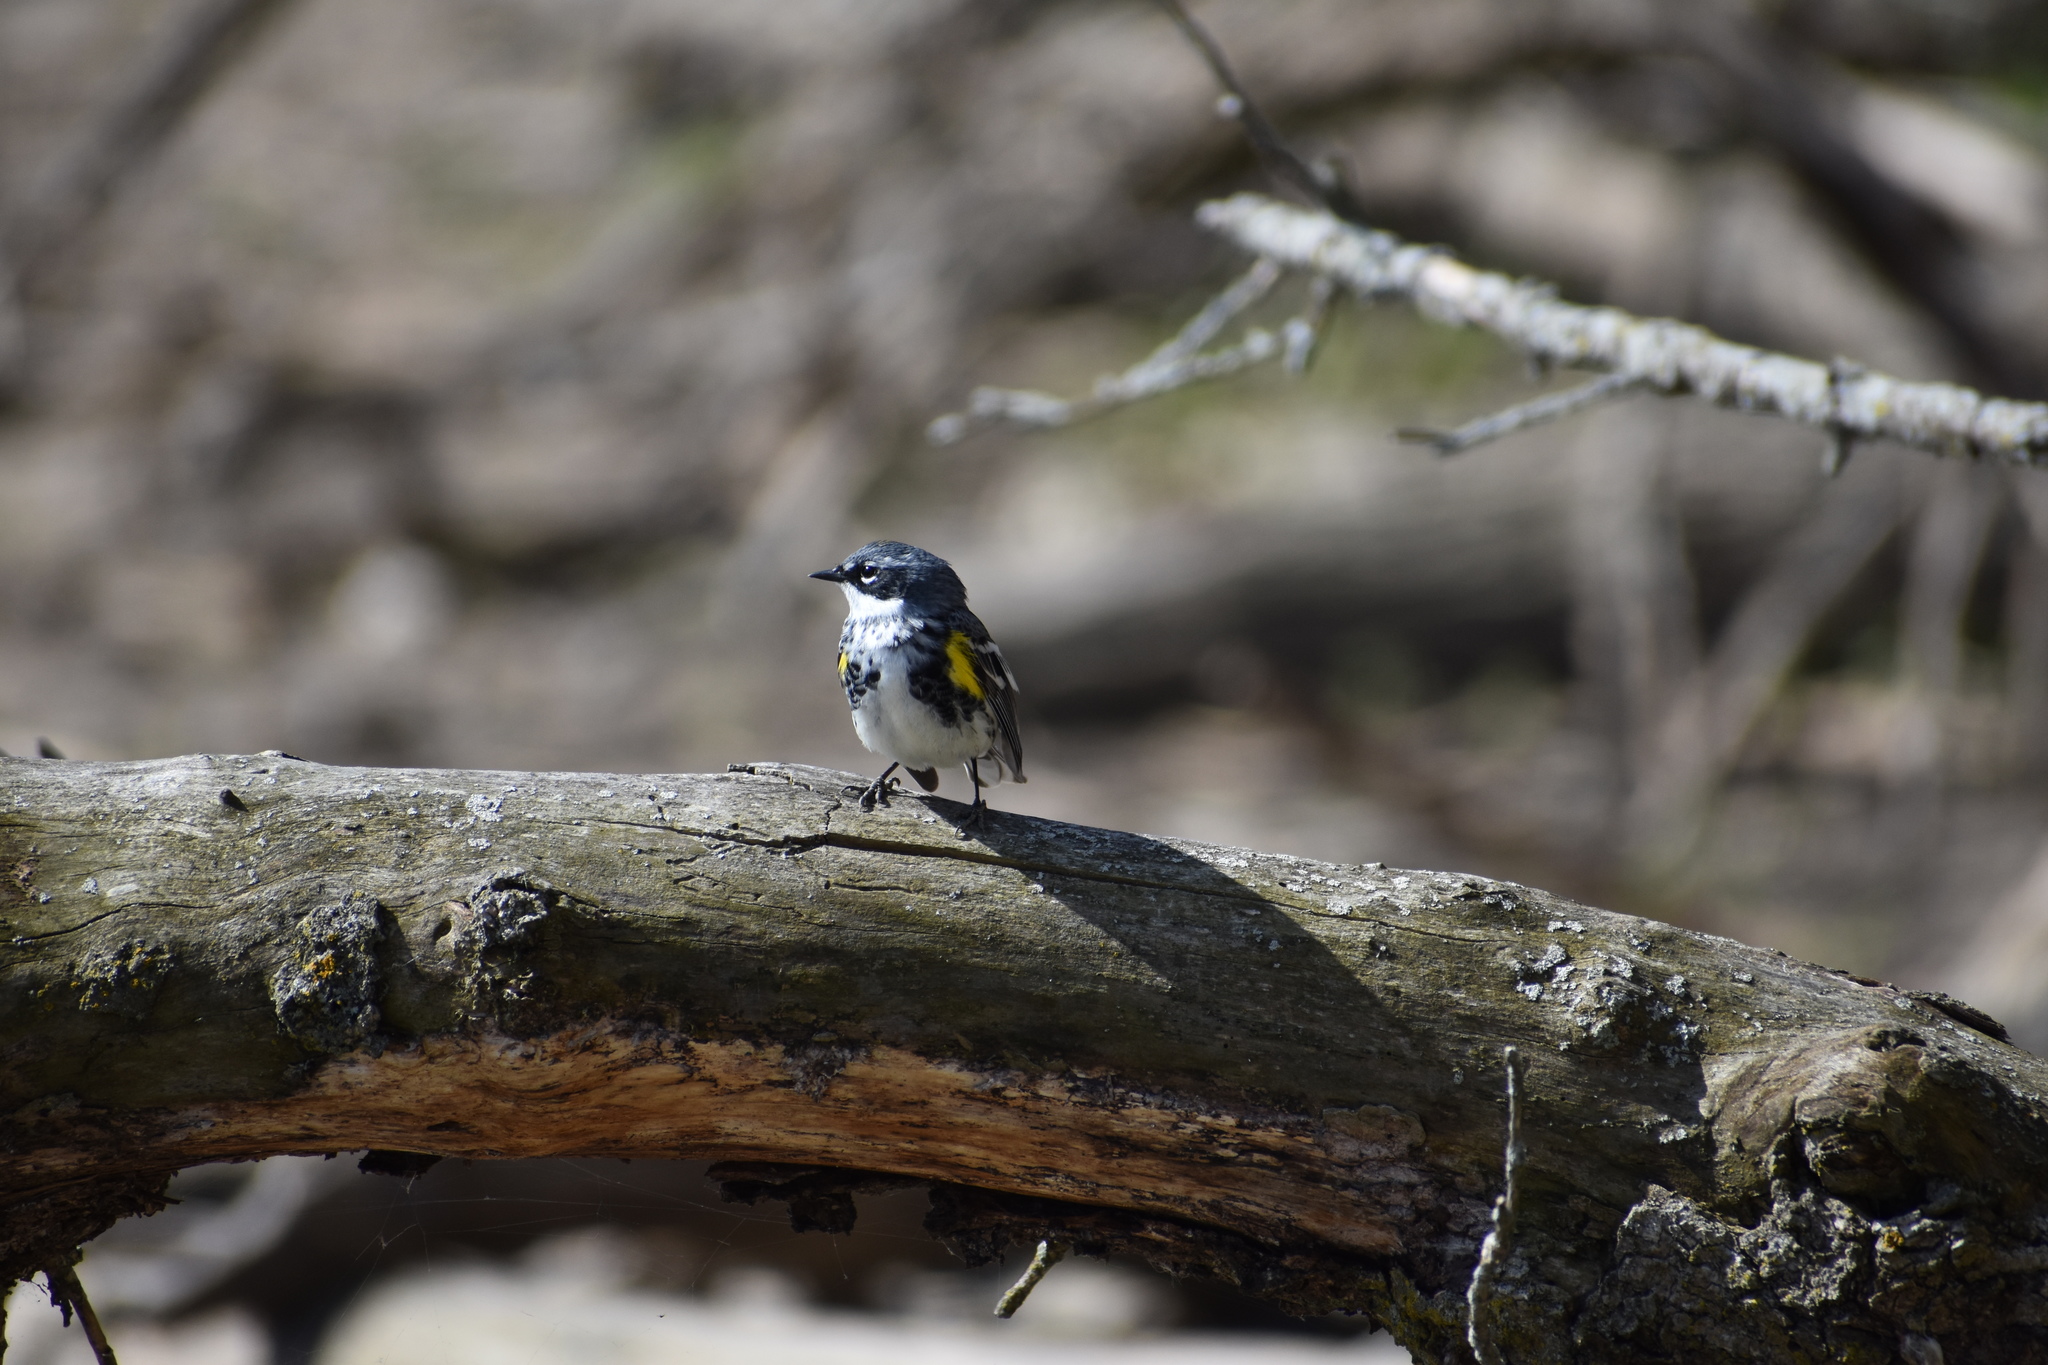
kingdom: Animalia
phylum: Chordata
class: Aves
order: Passeriformes
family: Parulidae
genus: Setophaga
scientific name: Setophaga coronata
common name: Myrtle warbler
